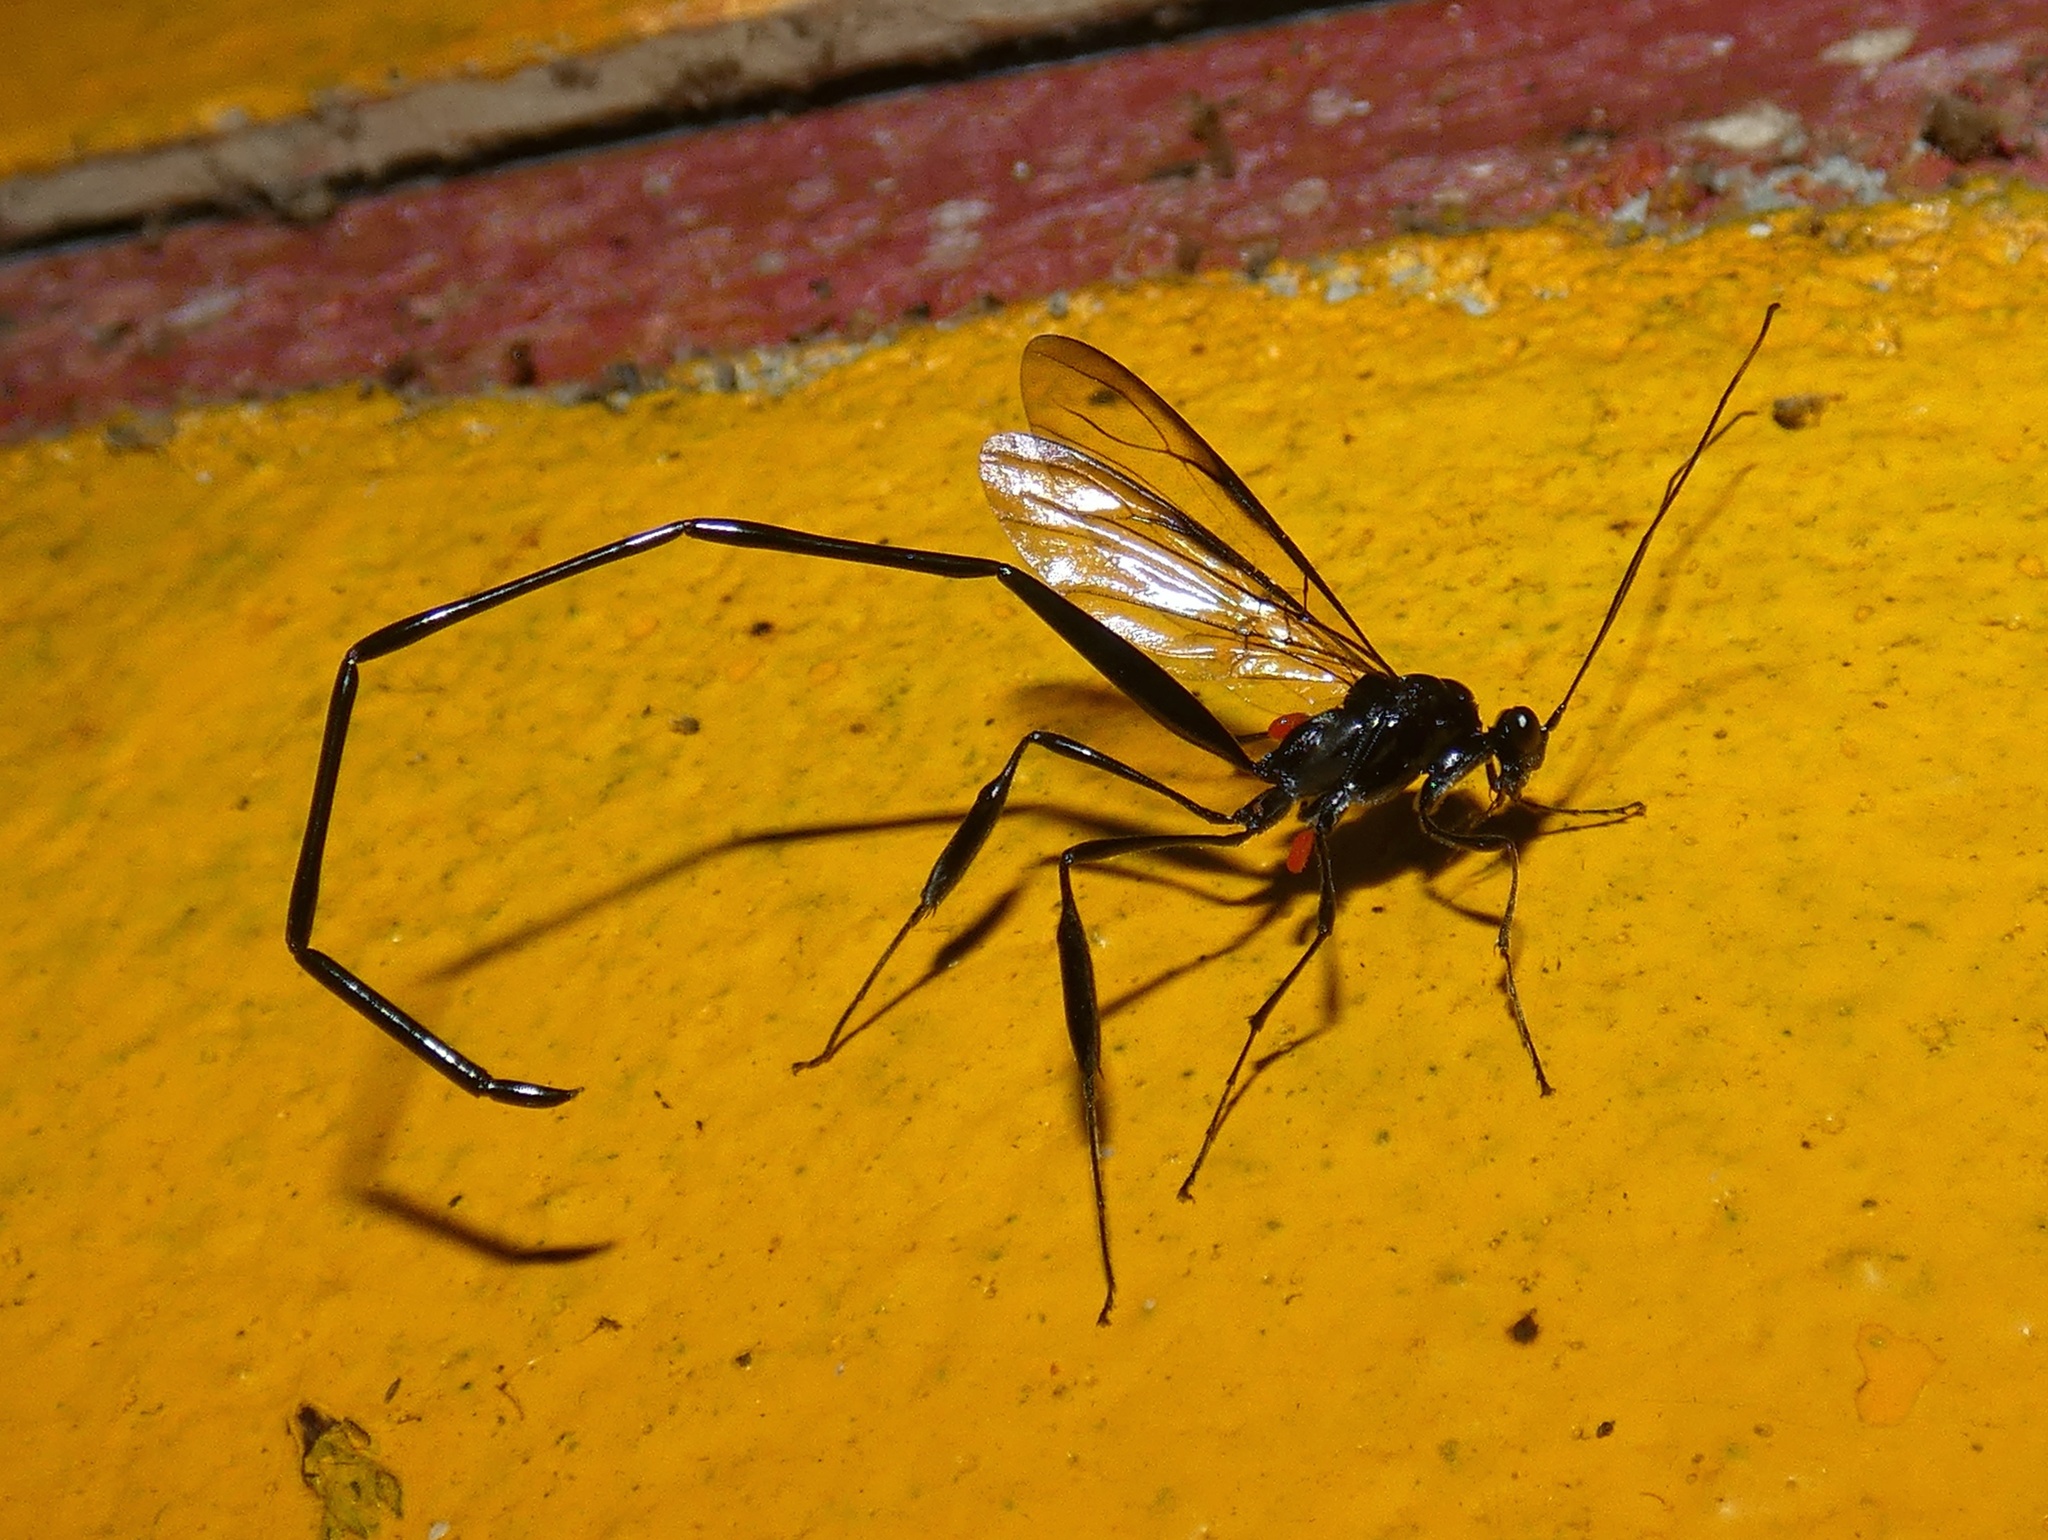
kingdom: Animalia
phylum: Arthropoda
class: Insecta
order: Hymenoptera
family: Pelecinidae
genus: Pelecinus
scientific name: Pelecinus polyturator
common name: American pelecinid wasp
